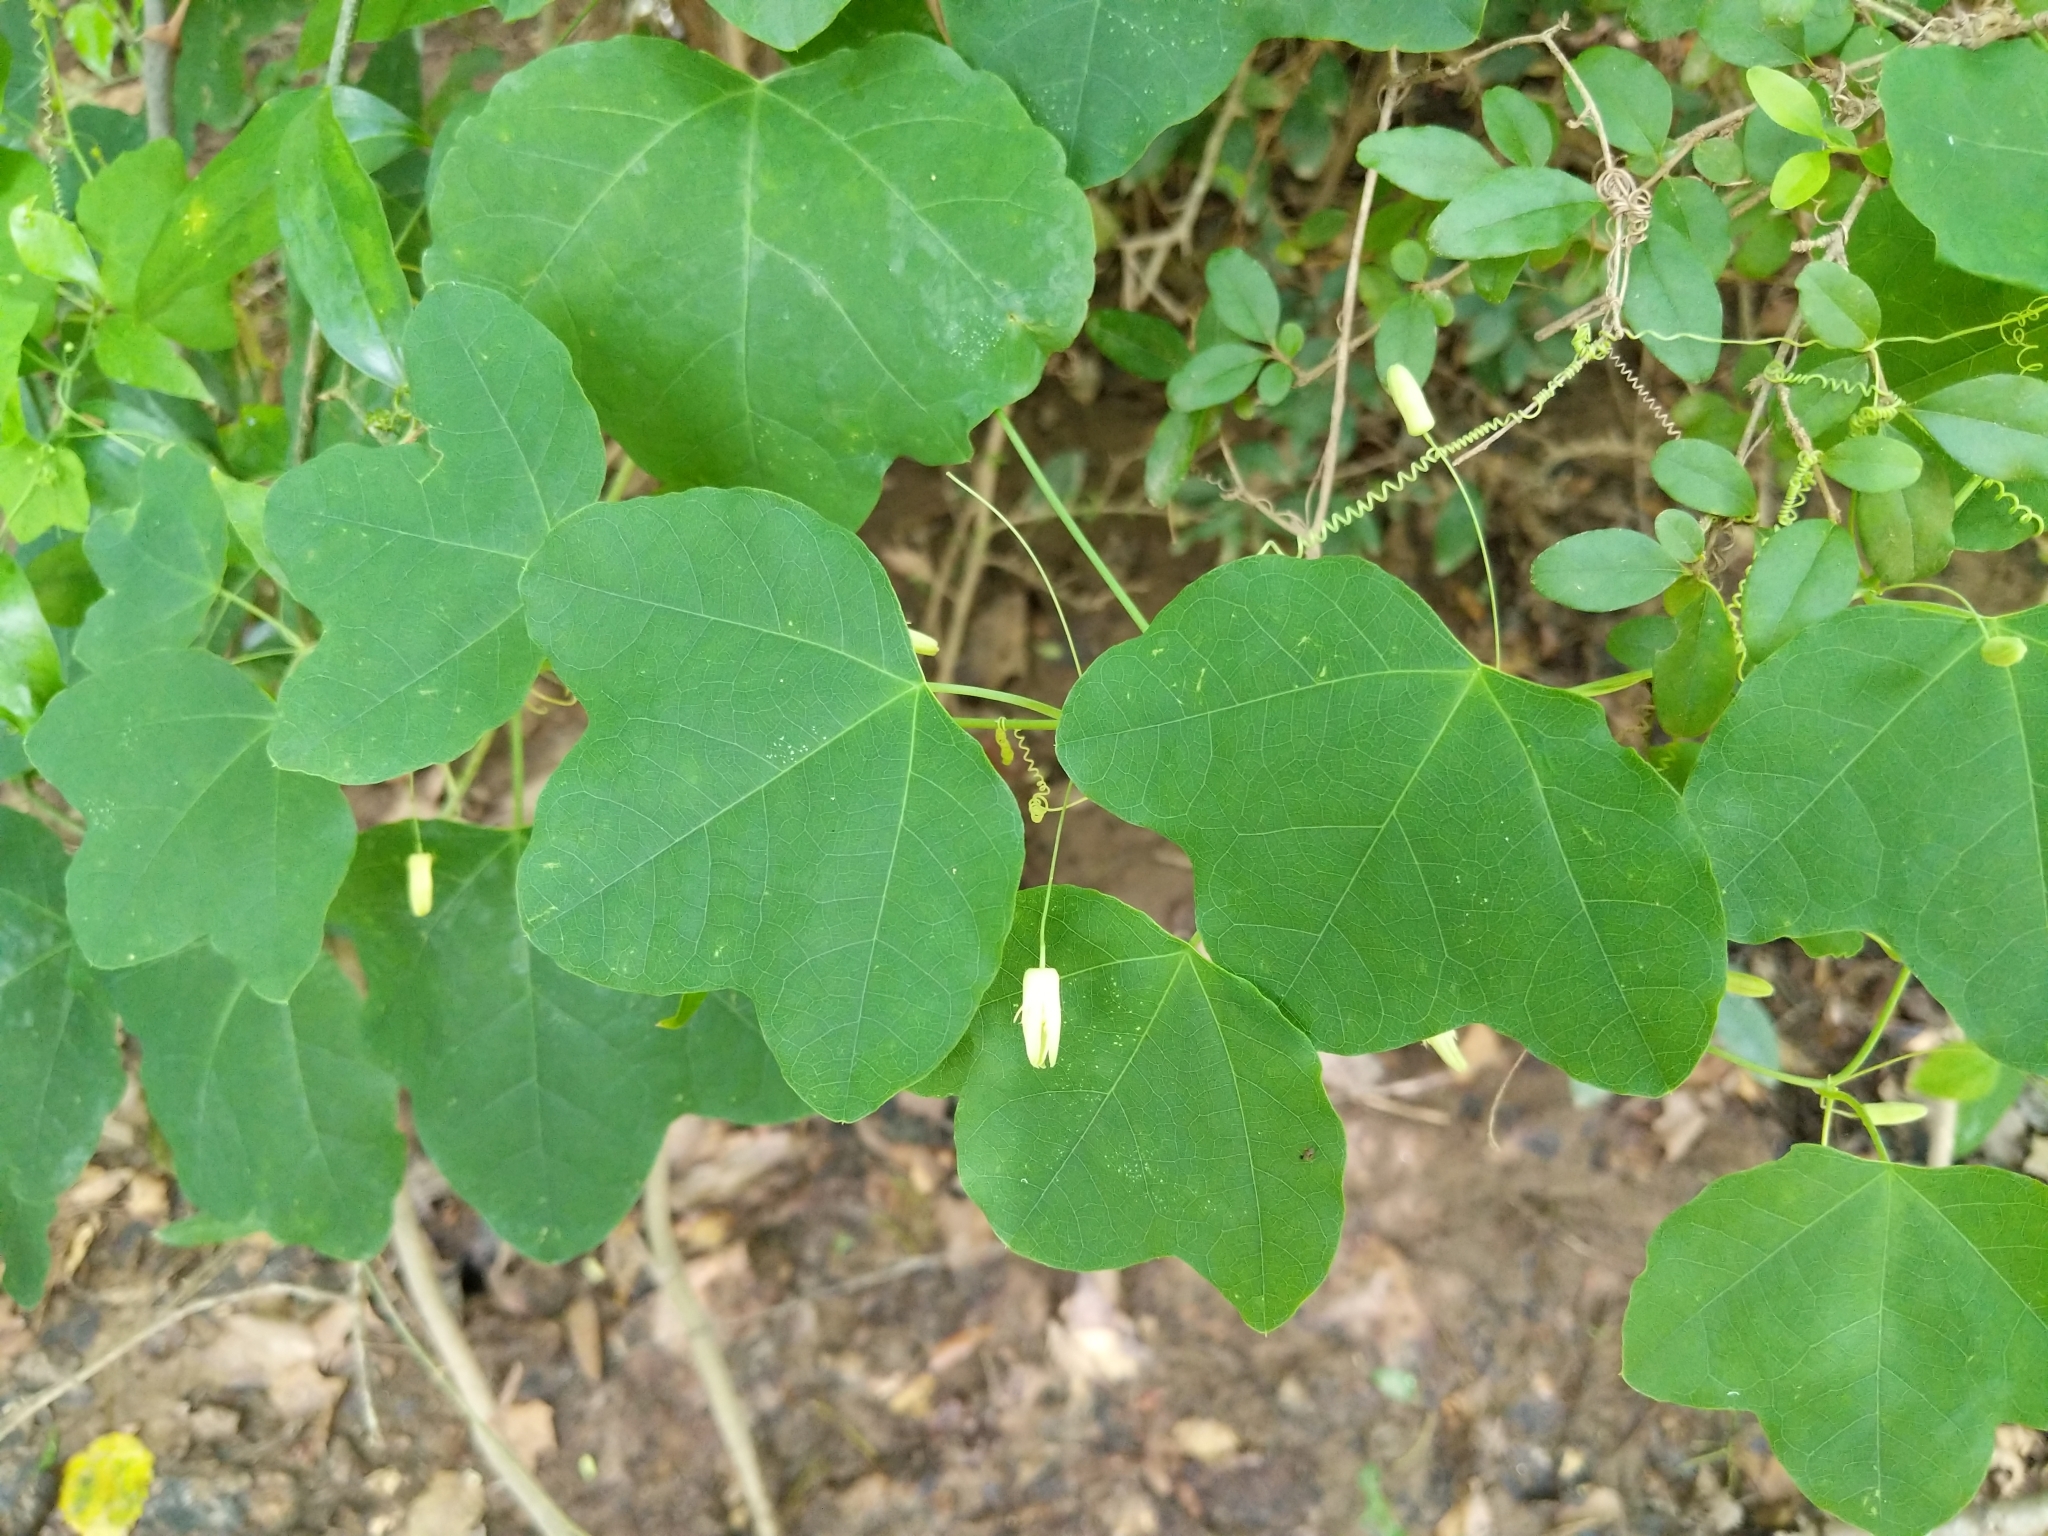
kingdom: Plantae
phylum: Tracheophyta
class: Magnoliopsida
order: Malpighiales
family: Passifloraceae
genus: Passiflora
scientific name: Passiflora lutea
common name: Yellow passionflower
